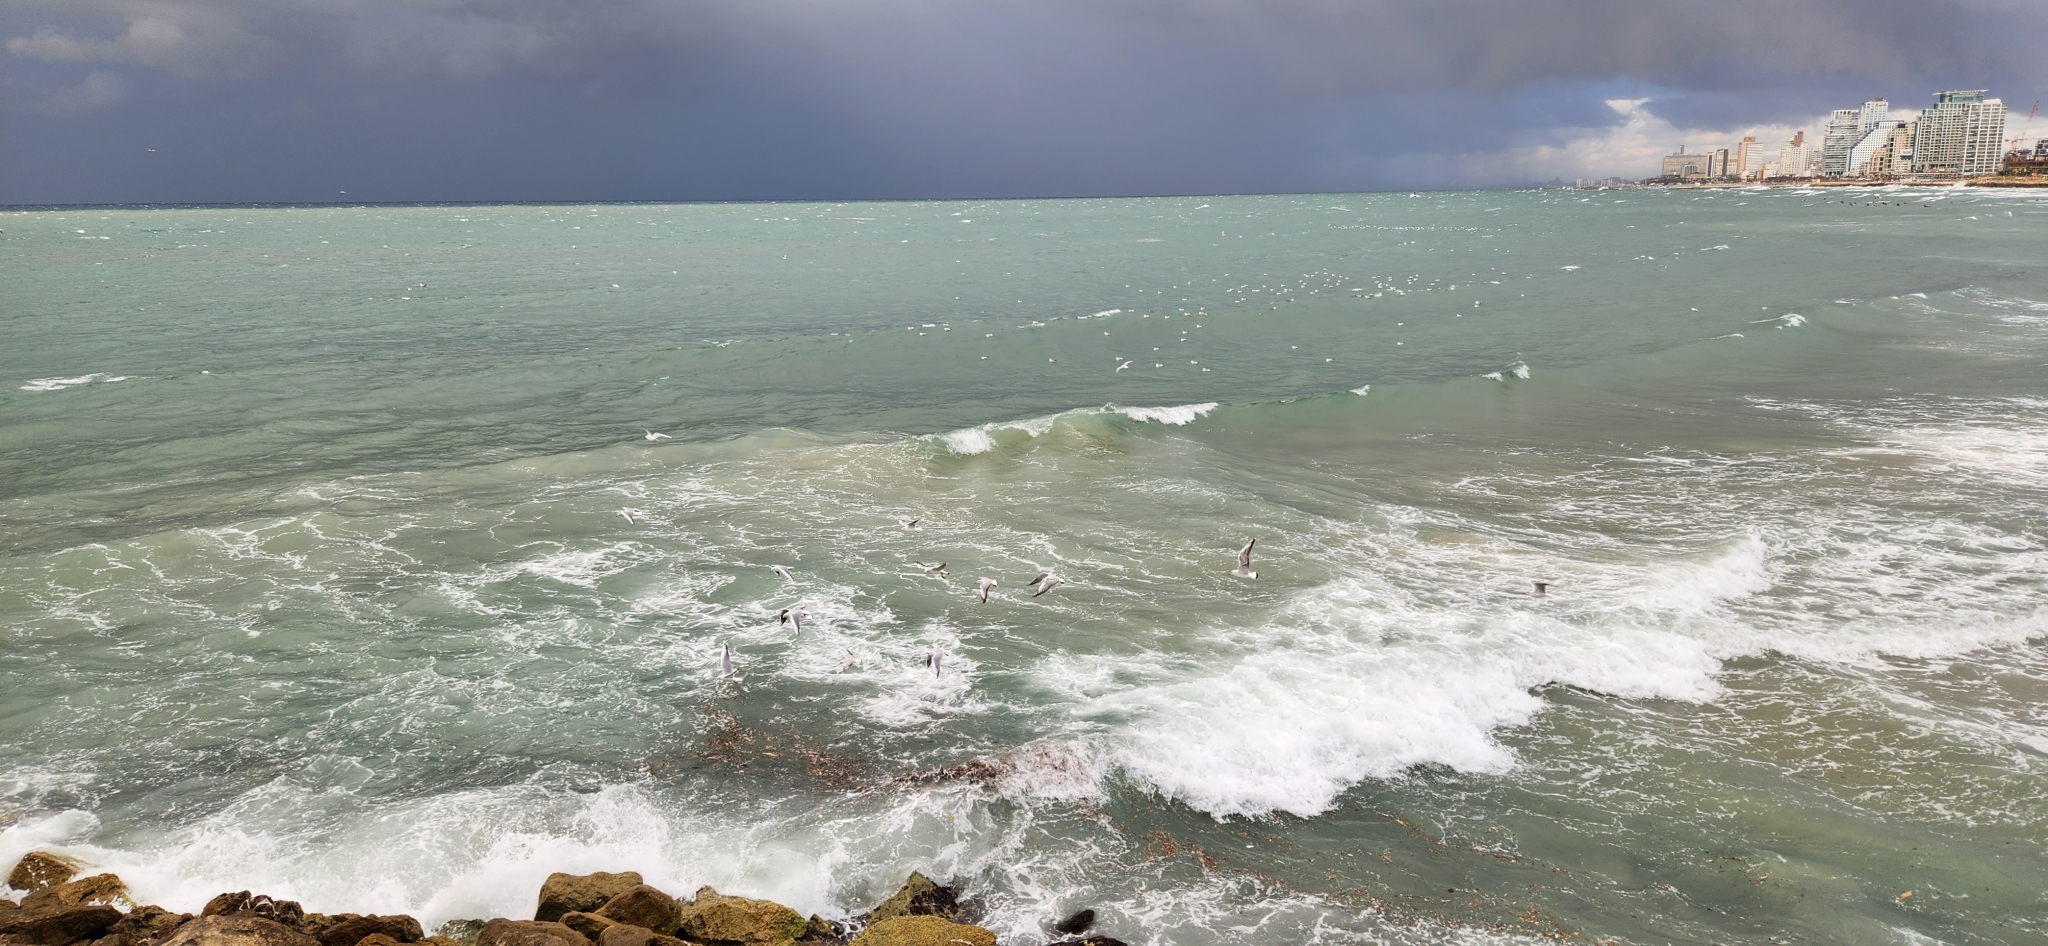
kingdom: Animalia
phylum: Chordata
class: Aves
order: Charadriiformes
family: Laridae
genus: Chroicocephalus
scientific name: Chroicocephalus ridibundus
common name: Black-headed gull
